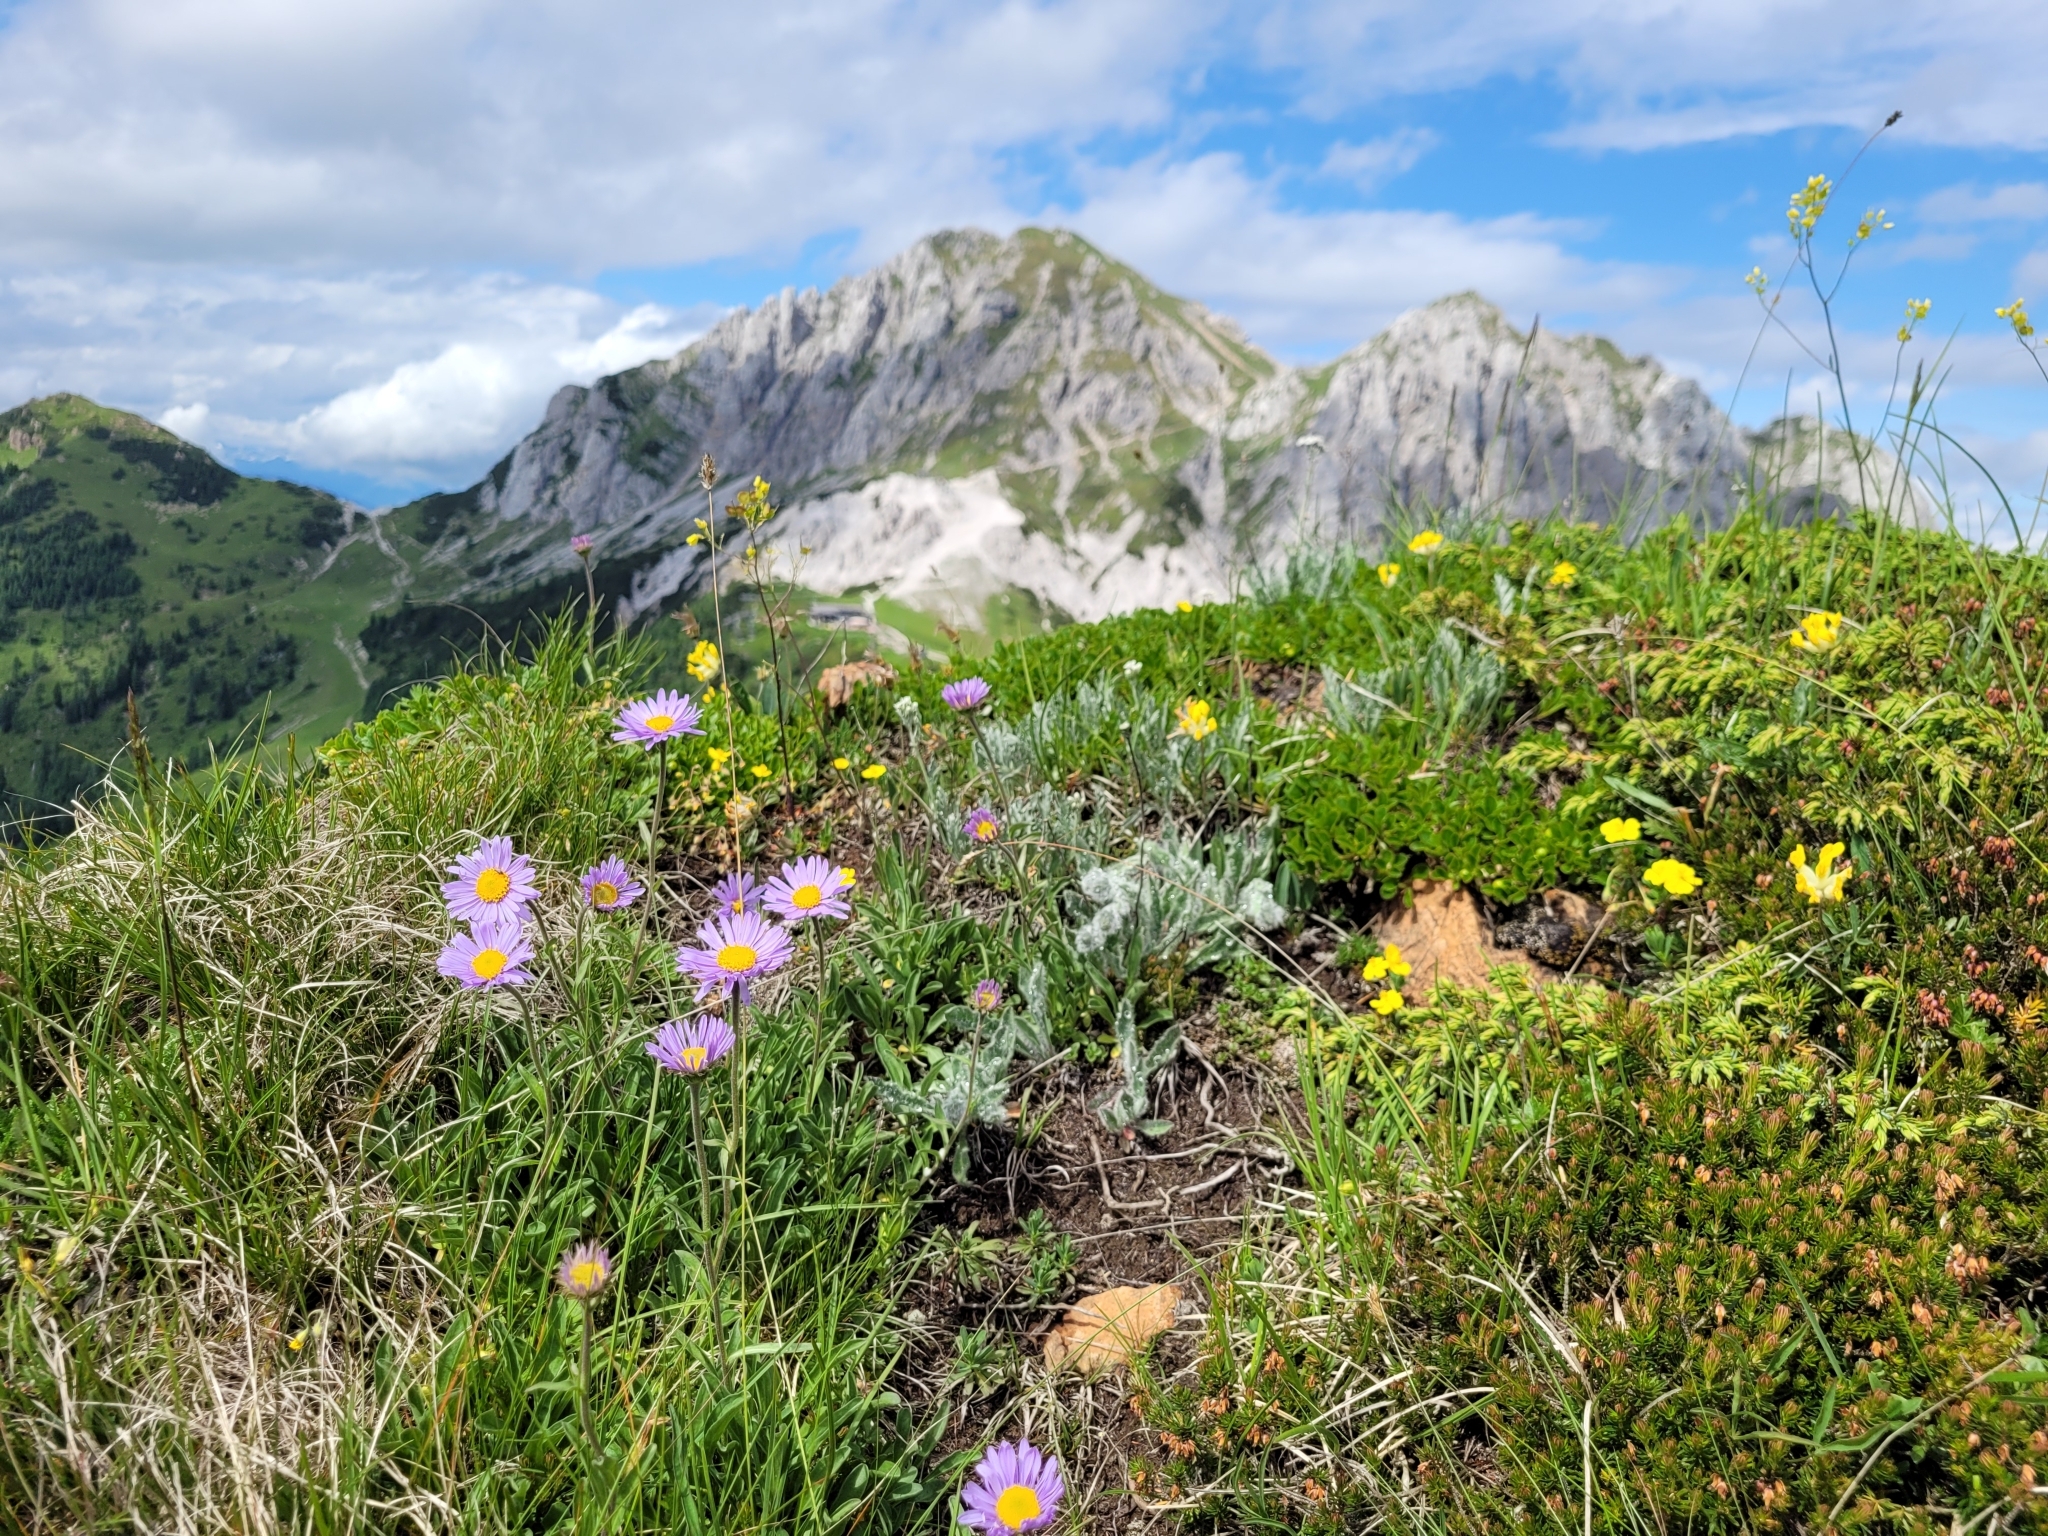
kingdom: Plantae
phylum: Tracheophyta
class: Magnoliopsida
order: Asterales
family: Asteraceae
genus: Aster
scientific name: Aster alpinus
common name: Alpine aster
